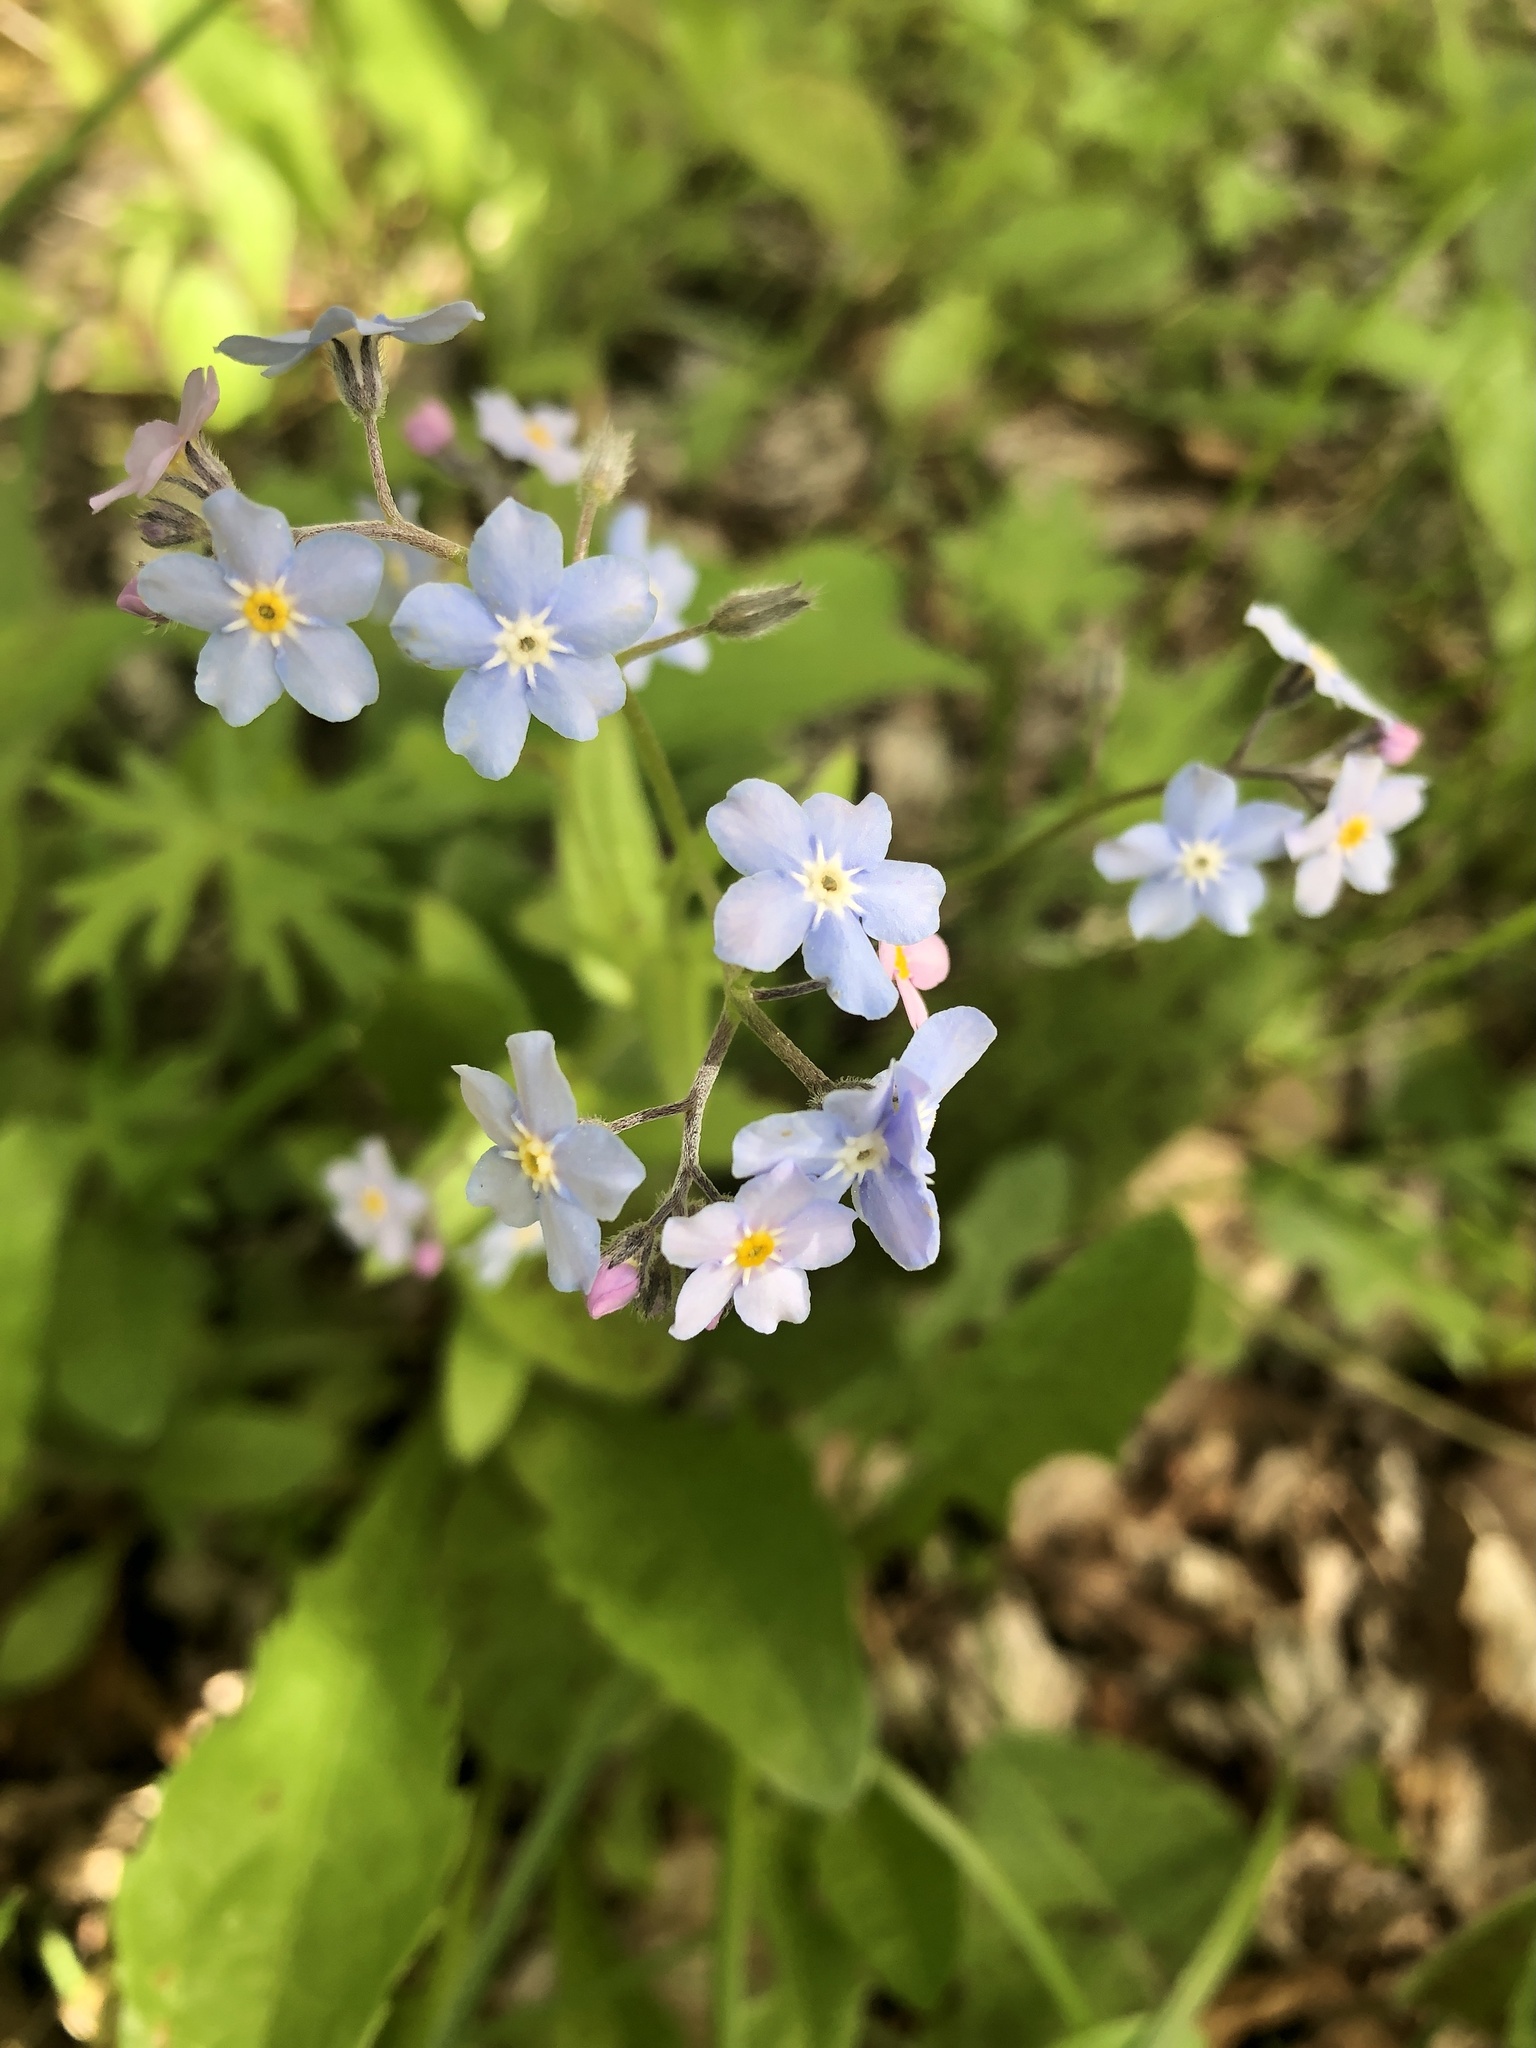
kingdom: Plantae
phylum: Tracheophyta
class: Magnoliopsida
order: Boraginales
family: Boraginaceae
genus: Myosotis
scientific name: Myosotis sylvatica
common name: Wood forget-me-not
